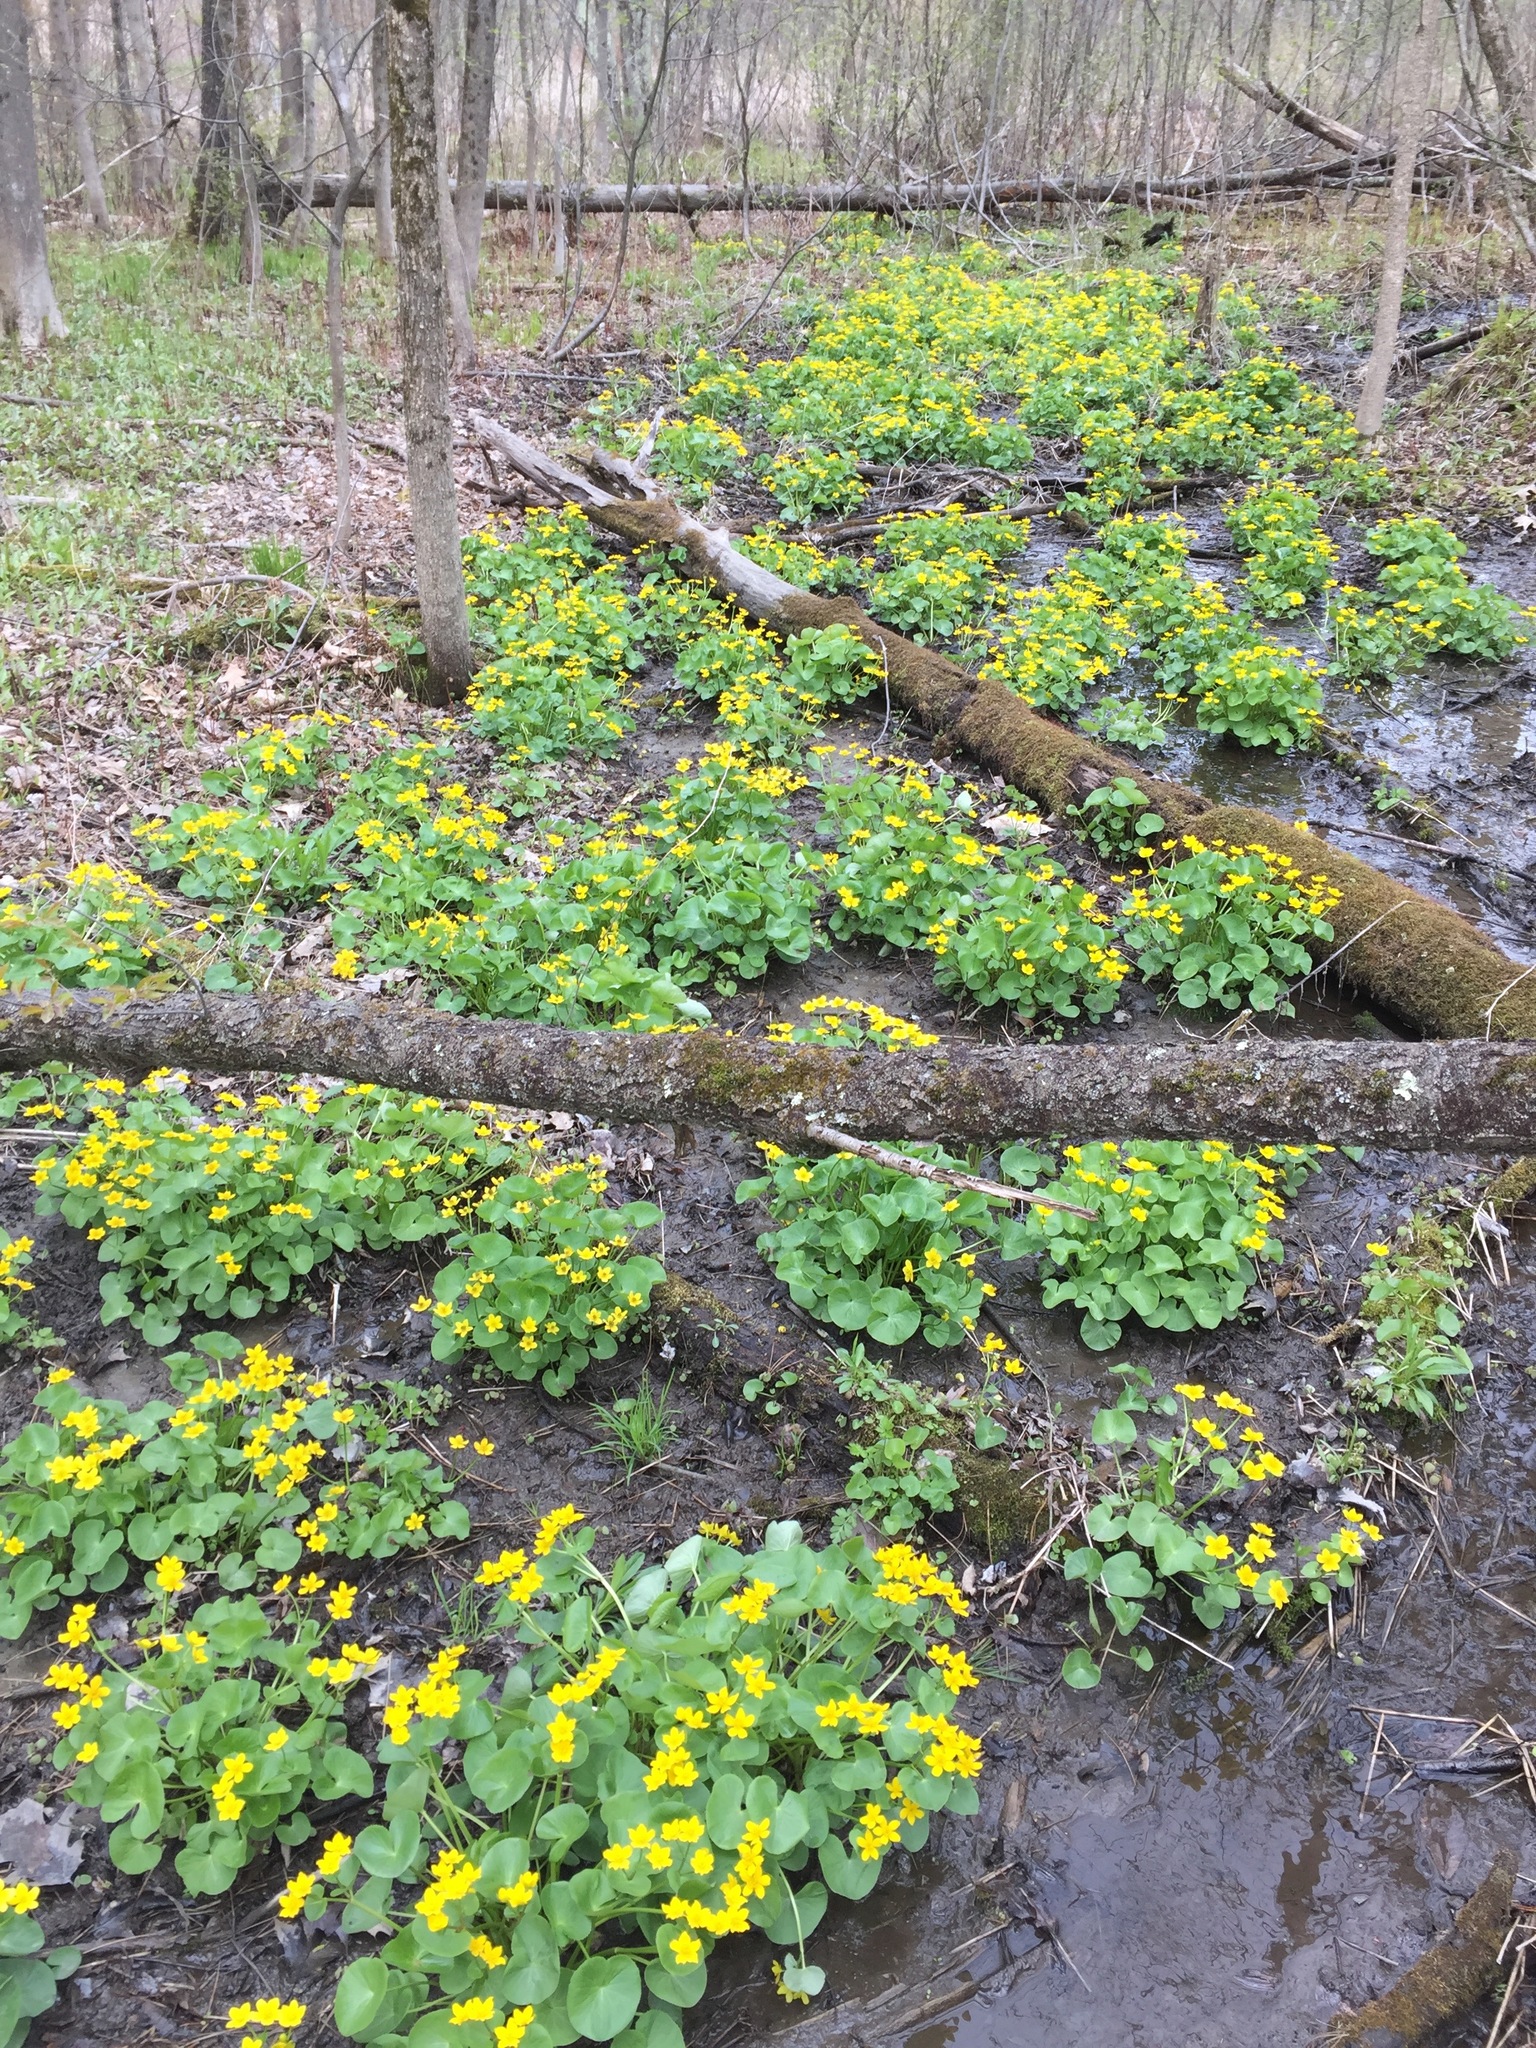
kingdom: Plantae
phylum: Tracheophyta
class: Magnoliopsida
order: Ranunculales
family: Ranunculaceae
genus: Caltha
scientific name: Caltha palustris
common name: Marsh marigold
